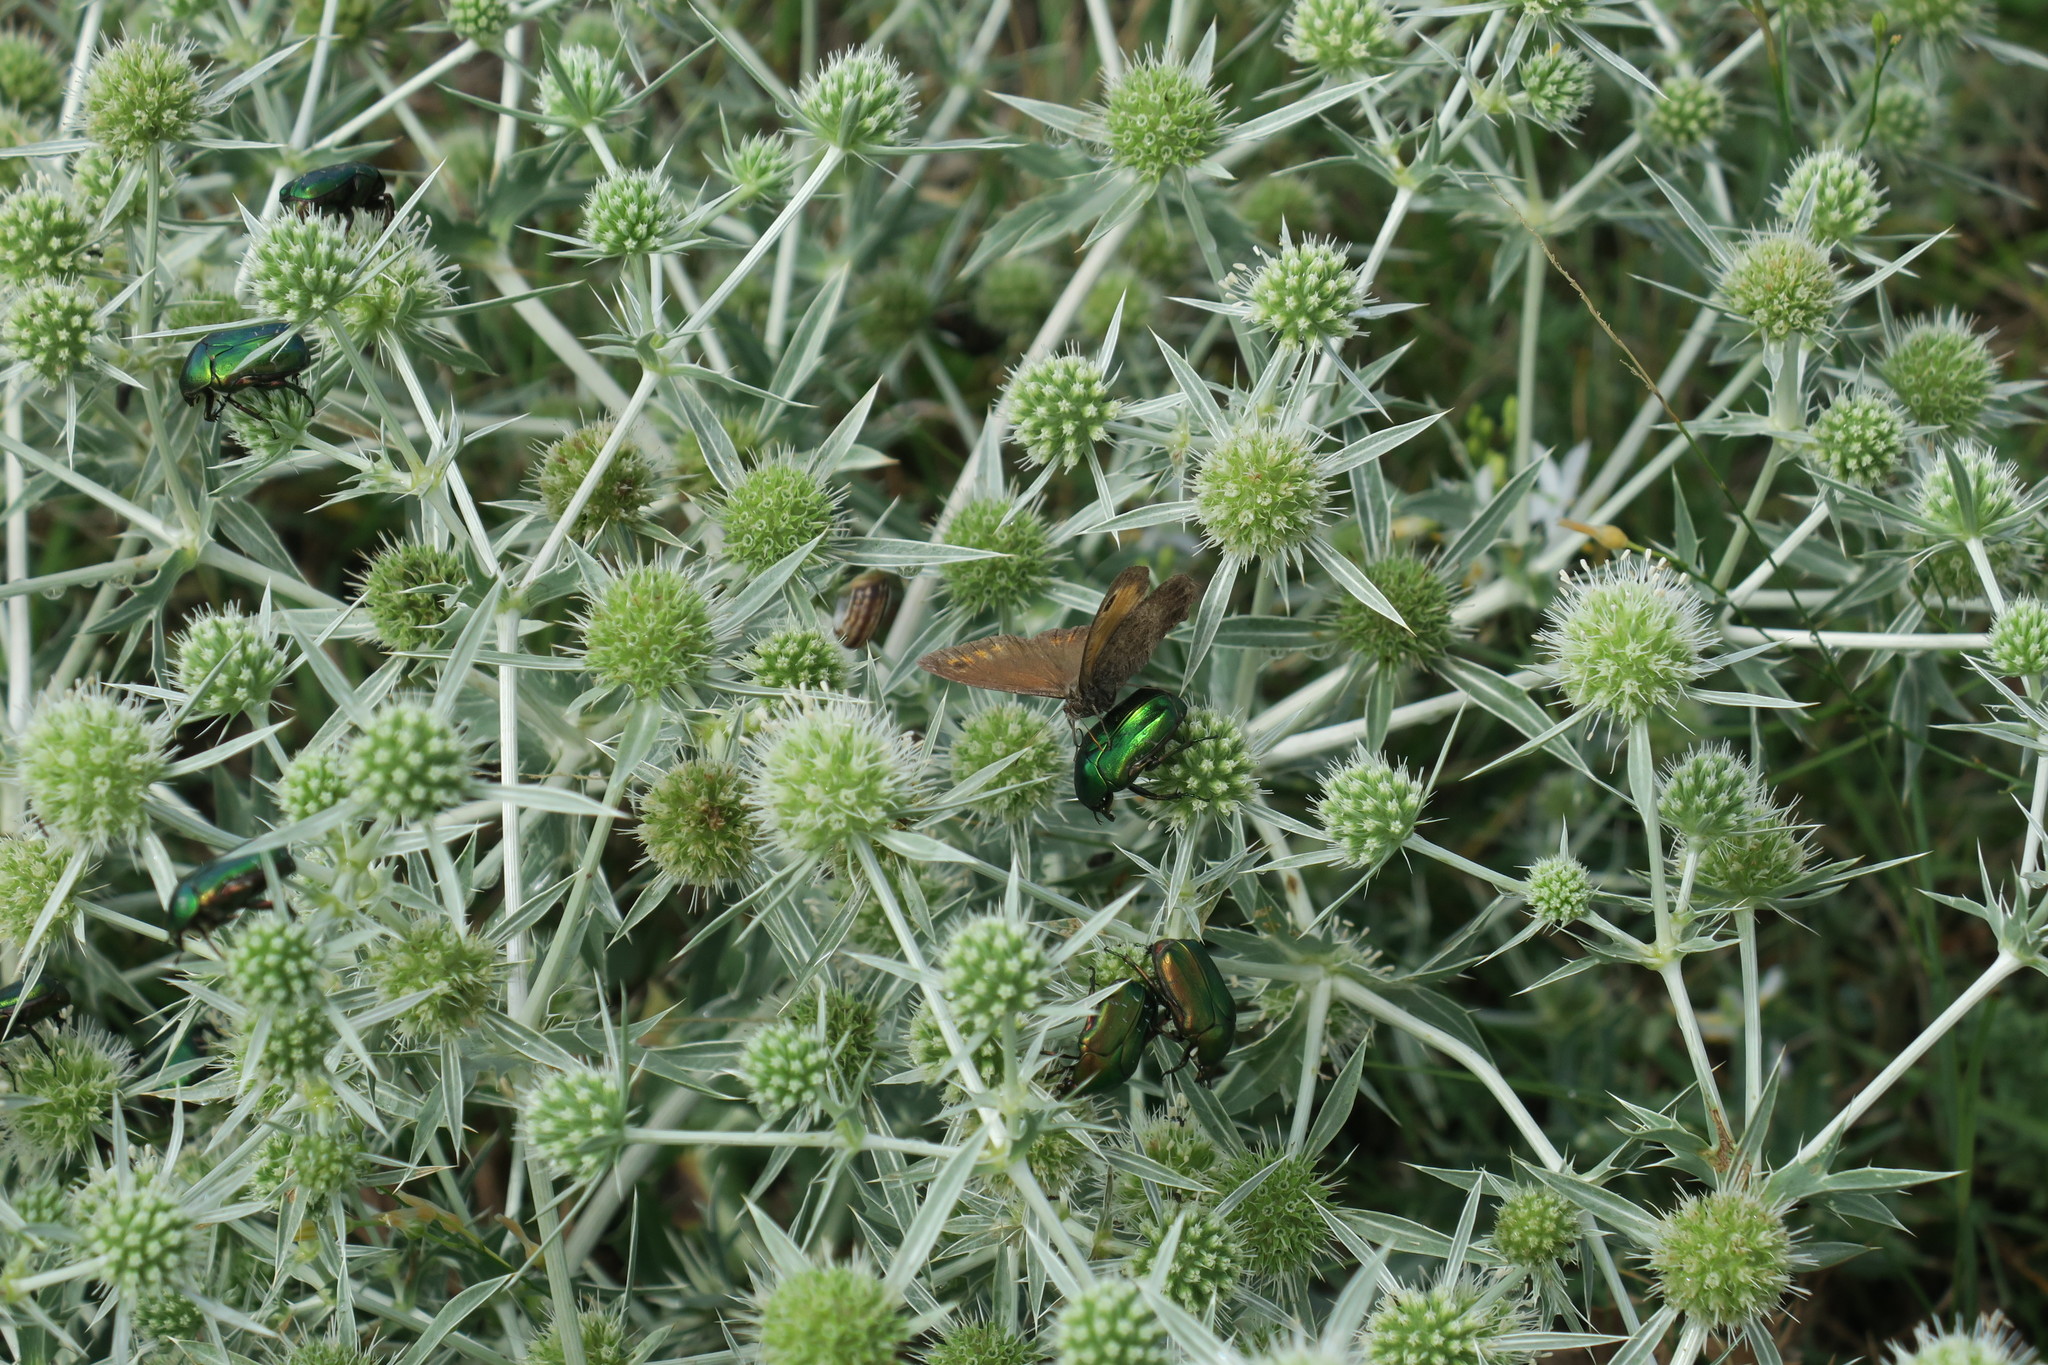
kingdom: Plantae
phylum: Tracheophyta
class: Magnoliopsida
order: Apiales
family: Apiaceae
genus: Eryngium
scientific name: Eryngium campestre
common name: Field eryngo
